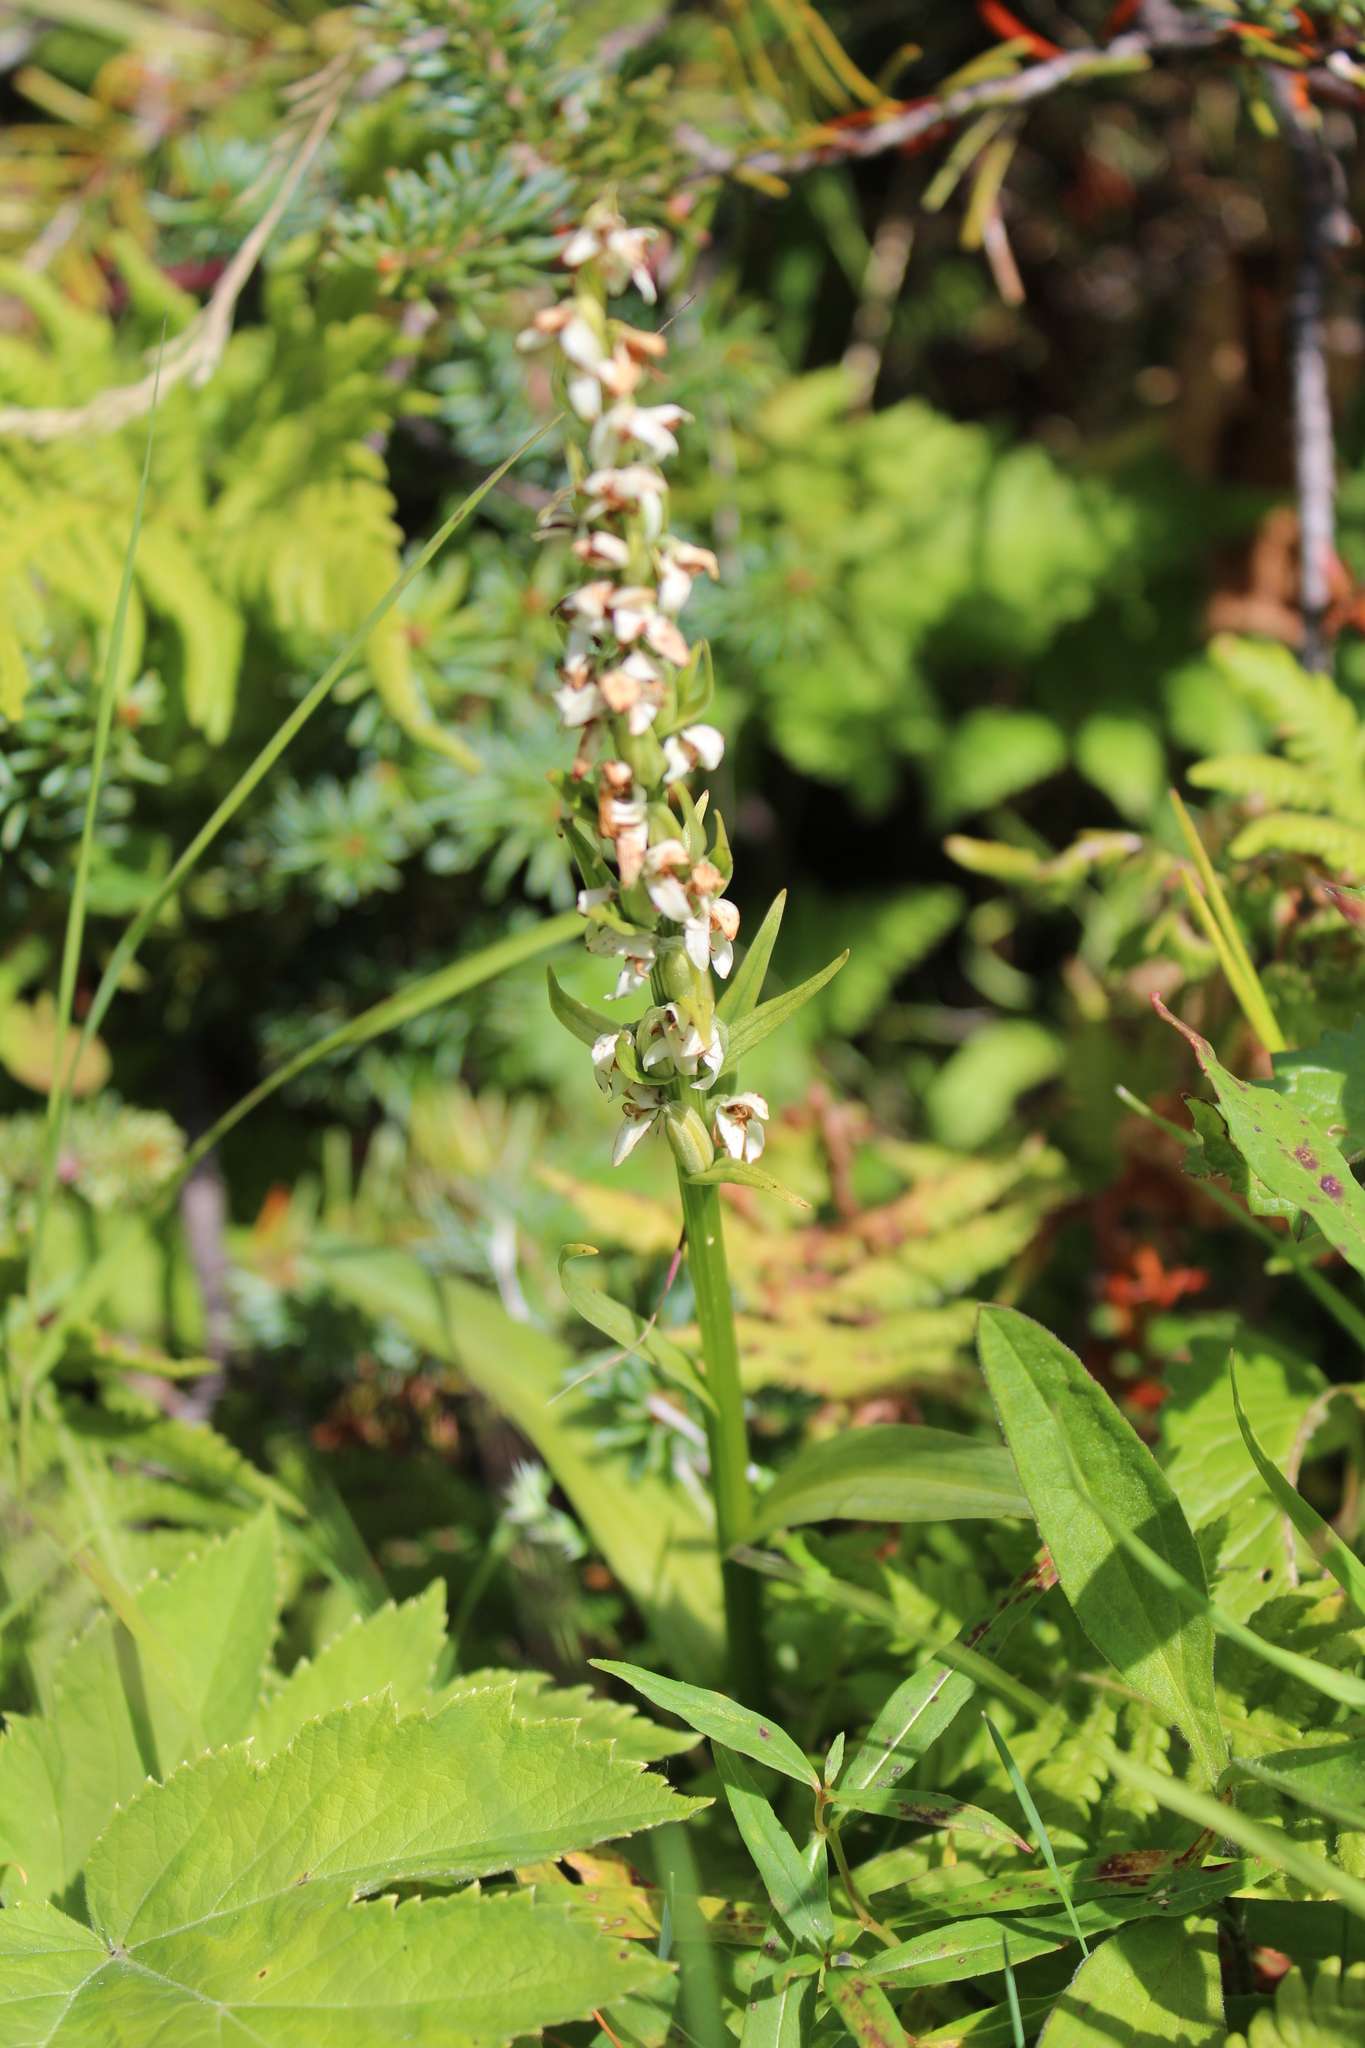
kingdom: Plantae
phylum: Tracheophyta
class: Liliopsida
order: Asparagales
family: Orchidaceae
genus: Platanthera
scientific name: Platanthera dilatata
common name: Bog candles
